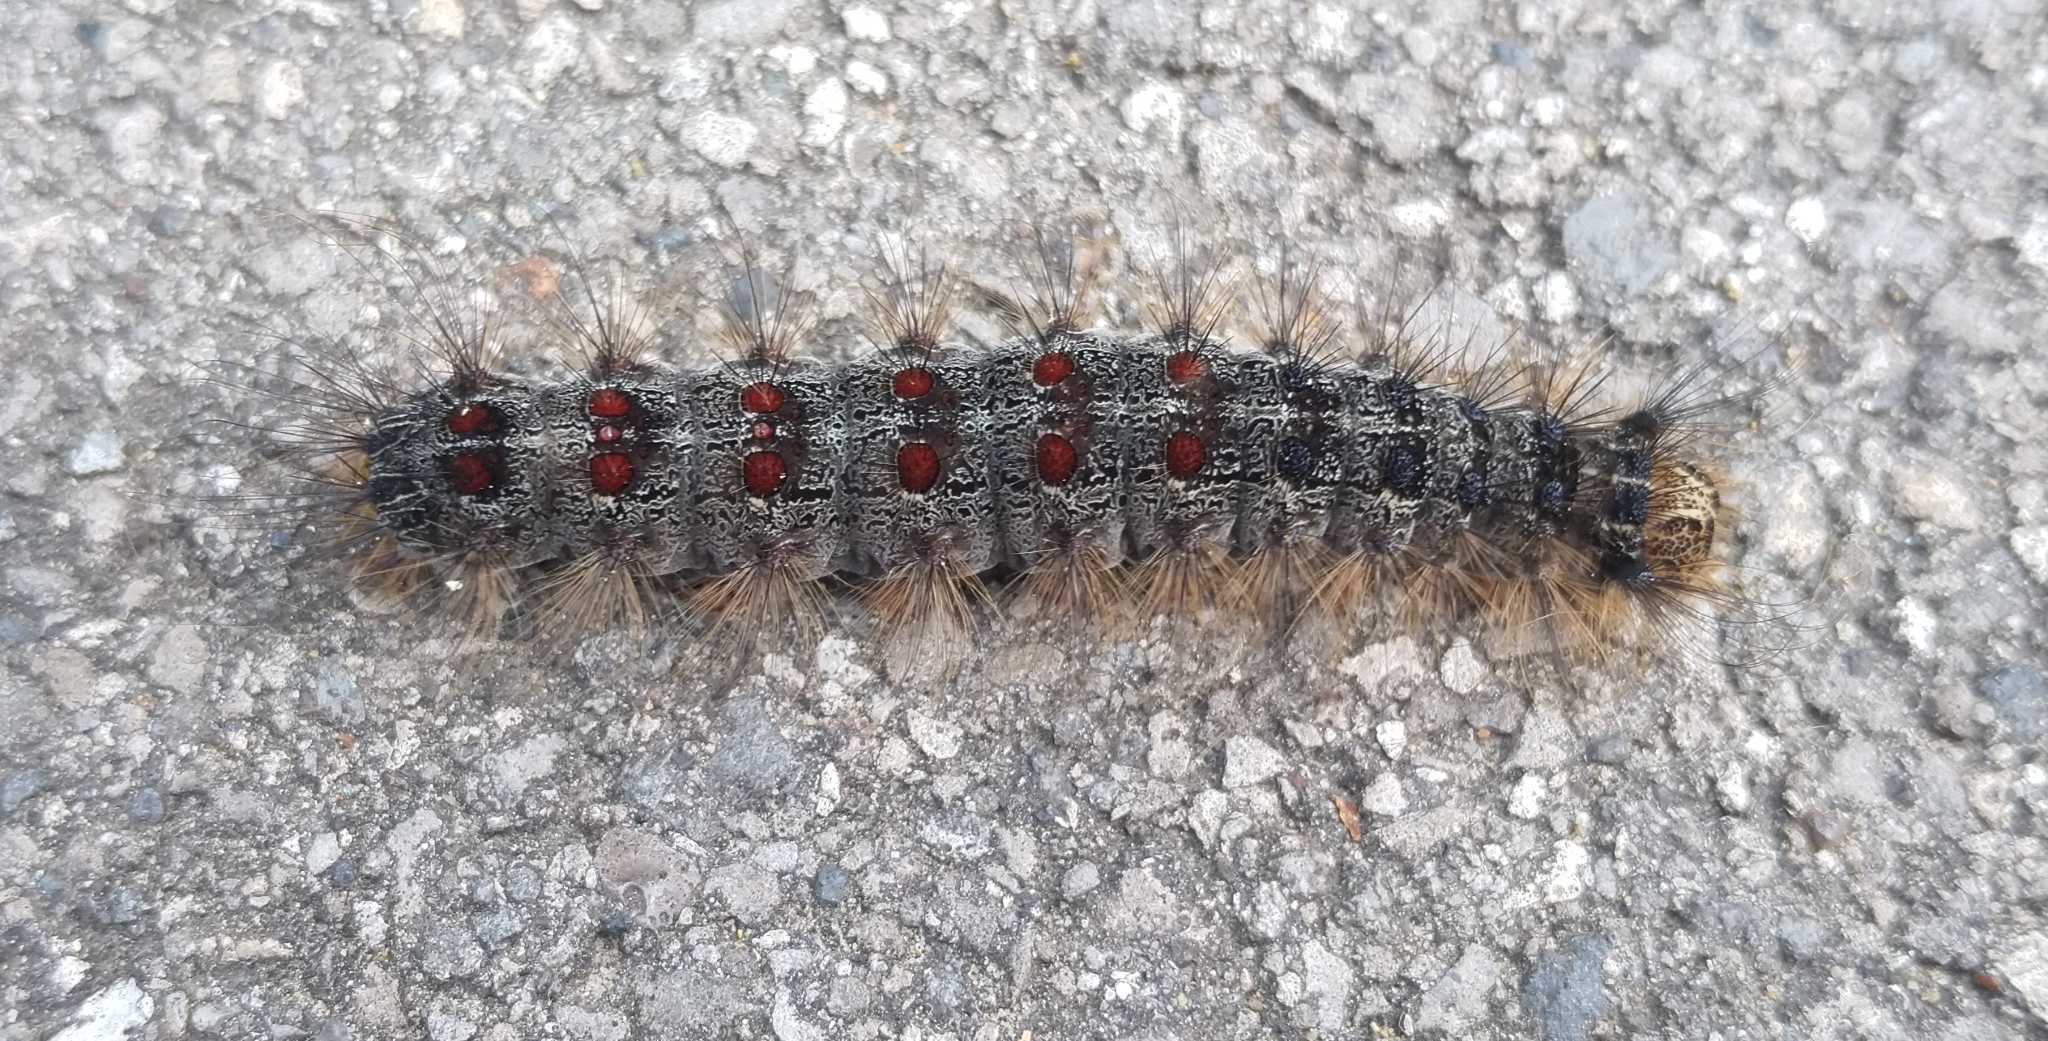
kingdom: Animalia
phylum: Arthropoda
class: Insecta
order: Lepidoptera
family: Erebidae
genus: Lymantria
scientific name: Lymantria dispar
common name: Gypsy moth
